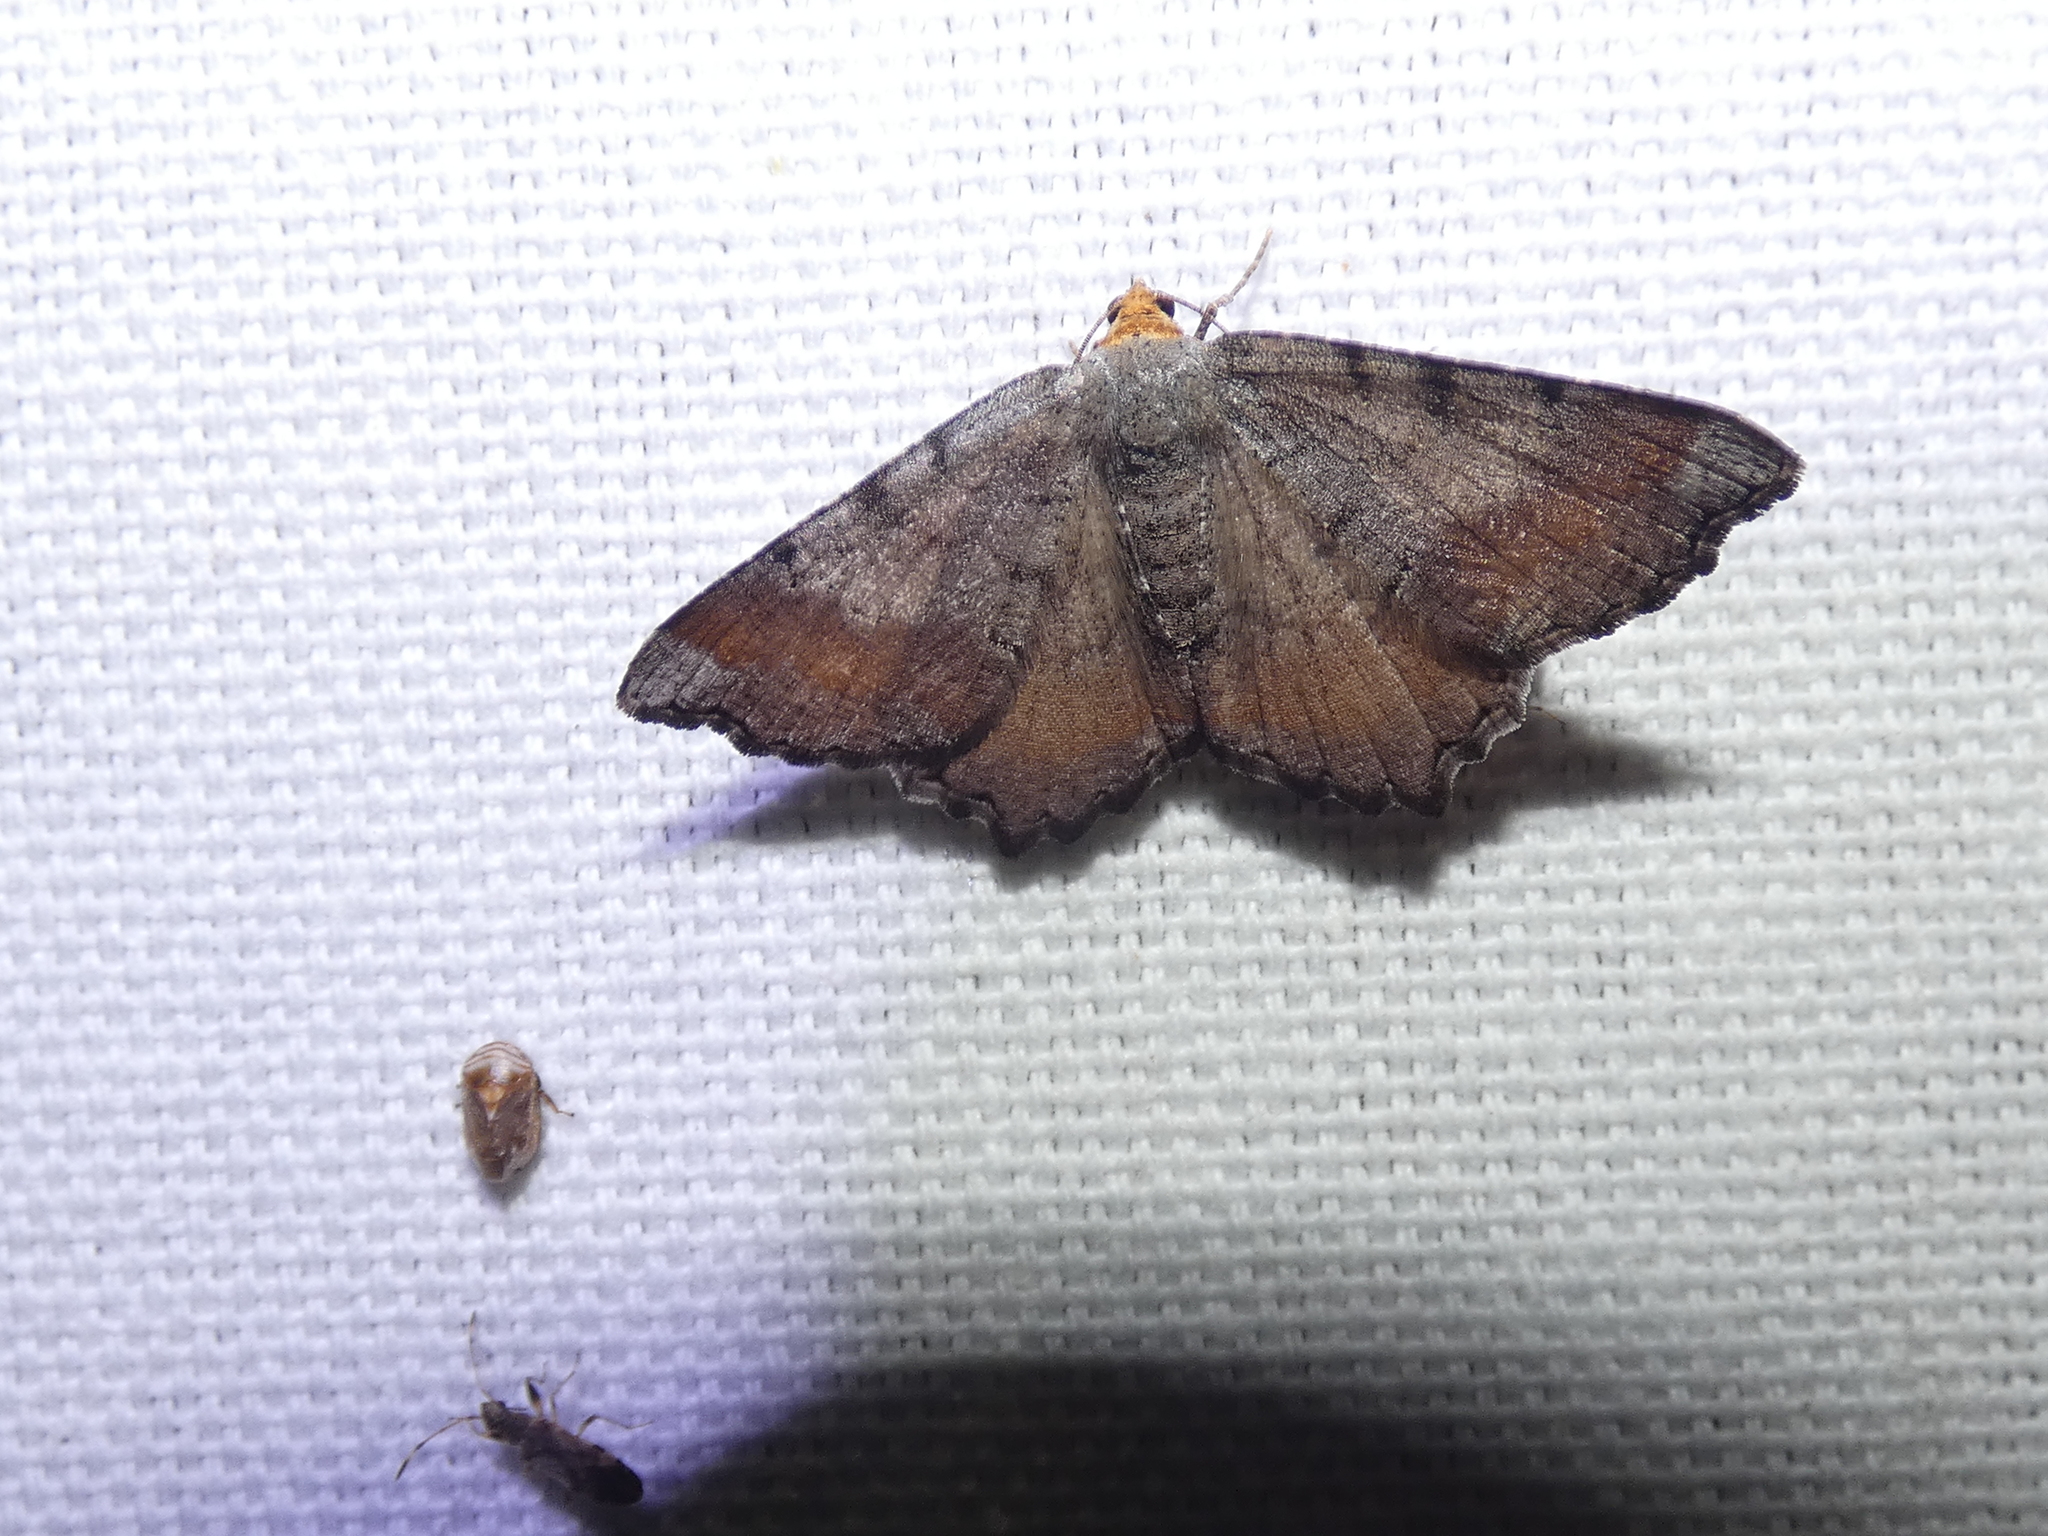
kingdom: Animalia
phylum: Arthropoda
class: Insecta
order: Lepidoptera
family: Geometridae
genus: Macaria
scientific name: Macaria transitaria
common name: Blurry chocolate angle
